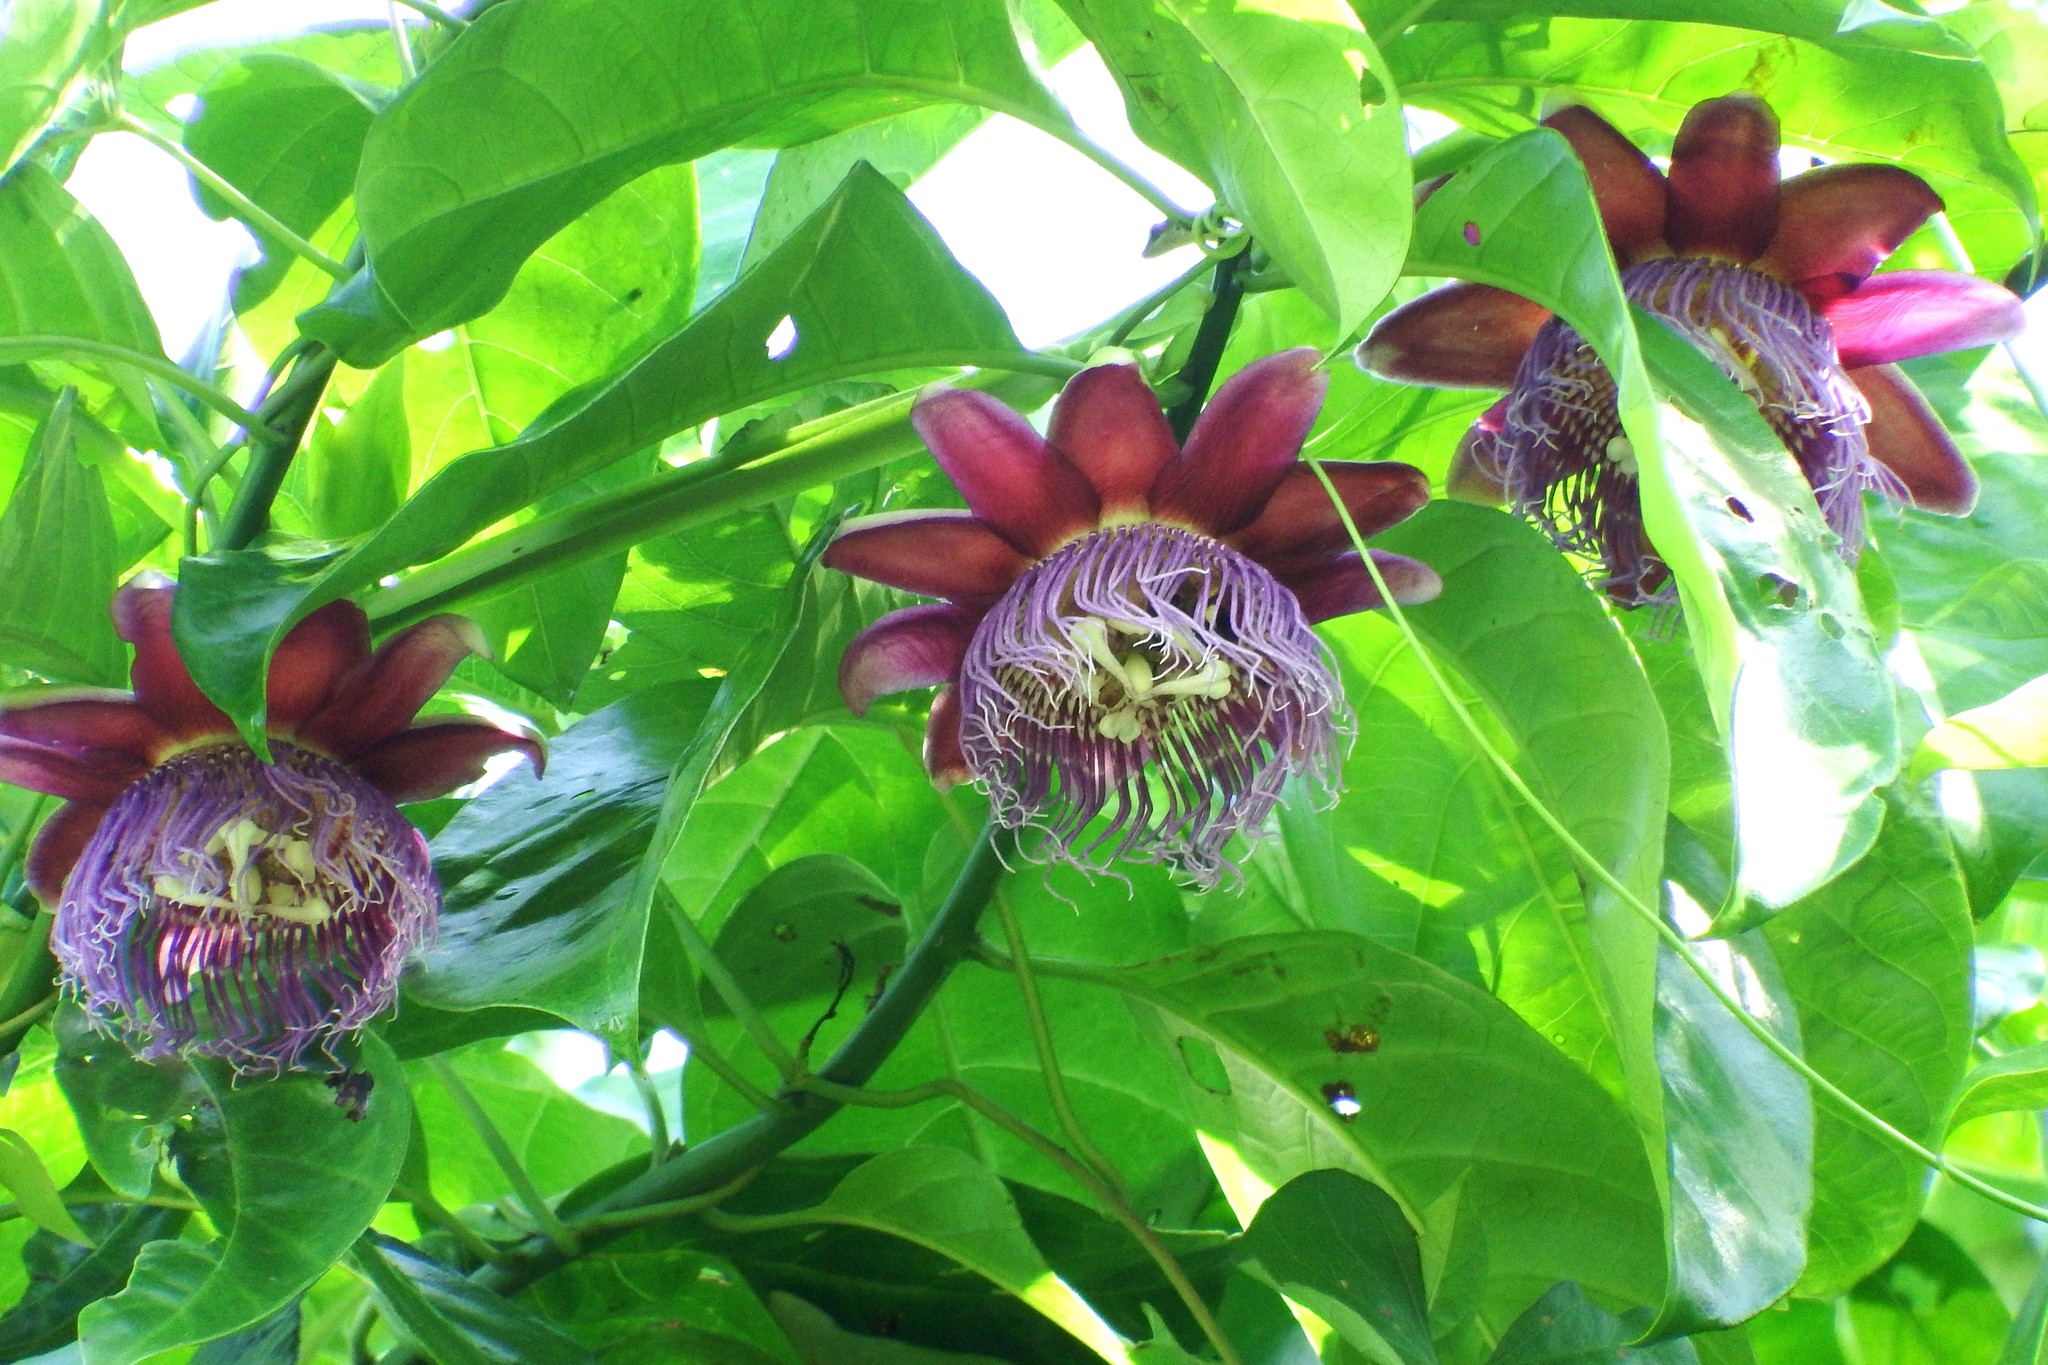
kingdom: Plantae
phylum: Tracheophyta
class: Magnoliopsida
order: Malpighiales
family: Passifloraceae
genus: Passiflora
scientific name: Passiflora decaisneana
